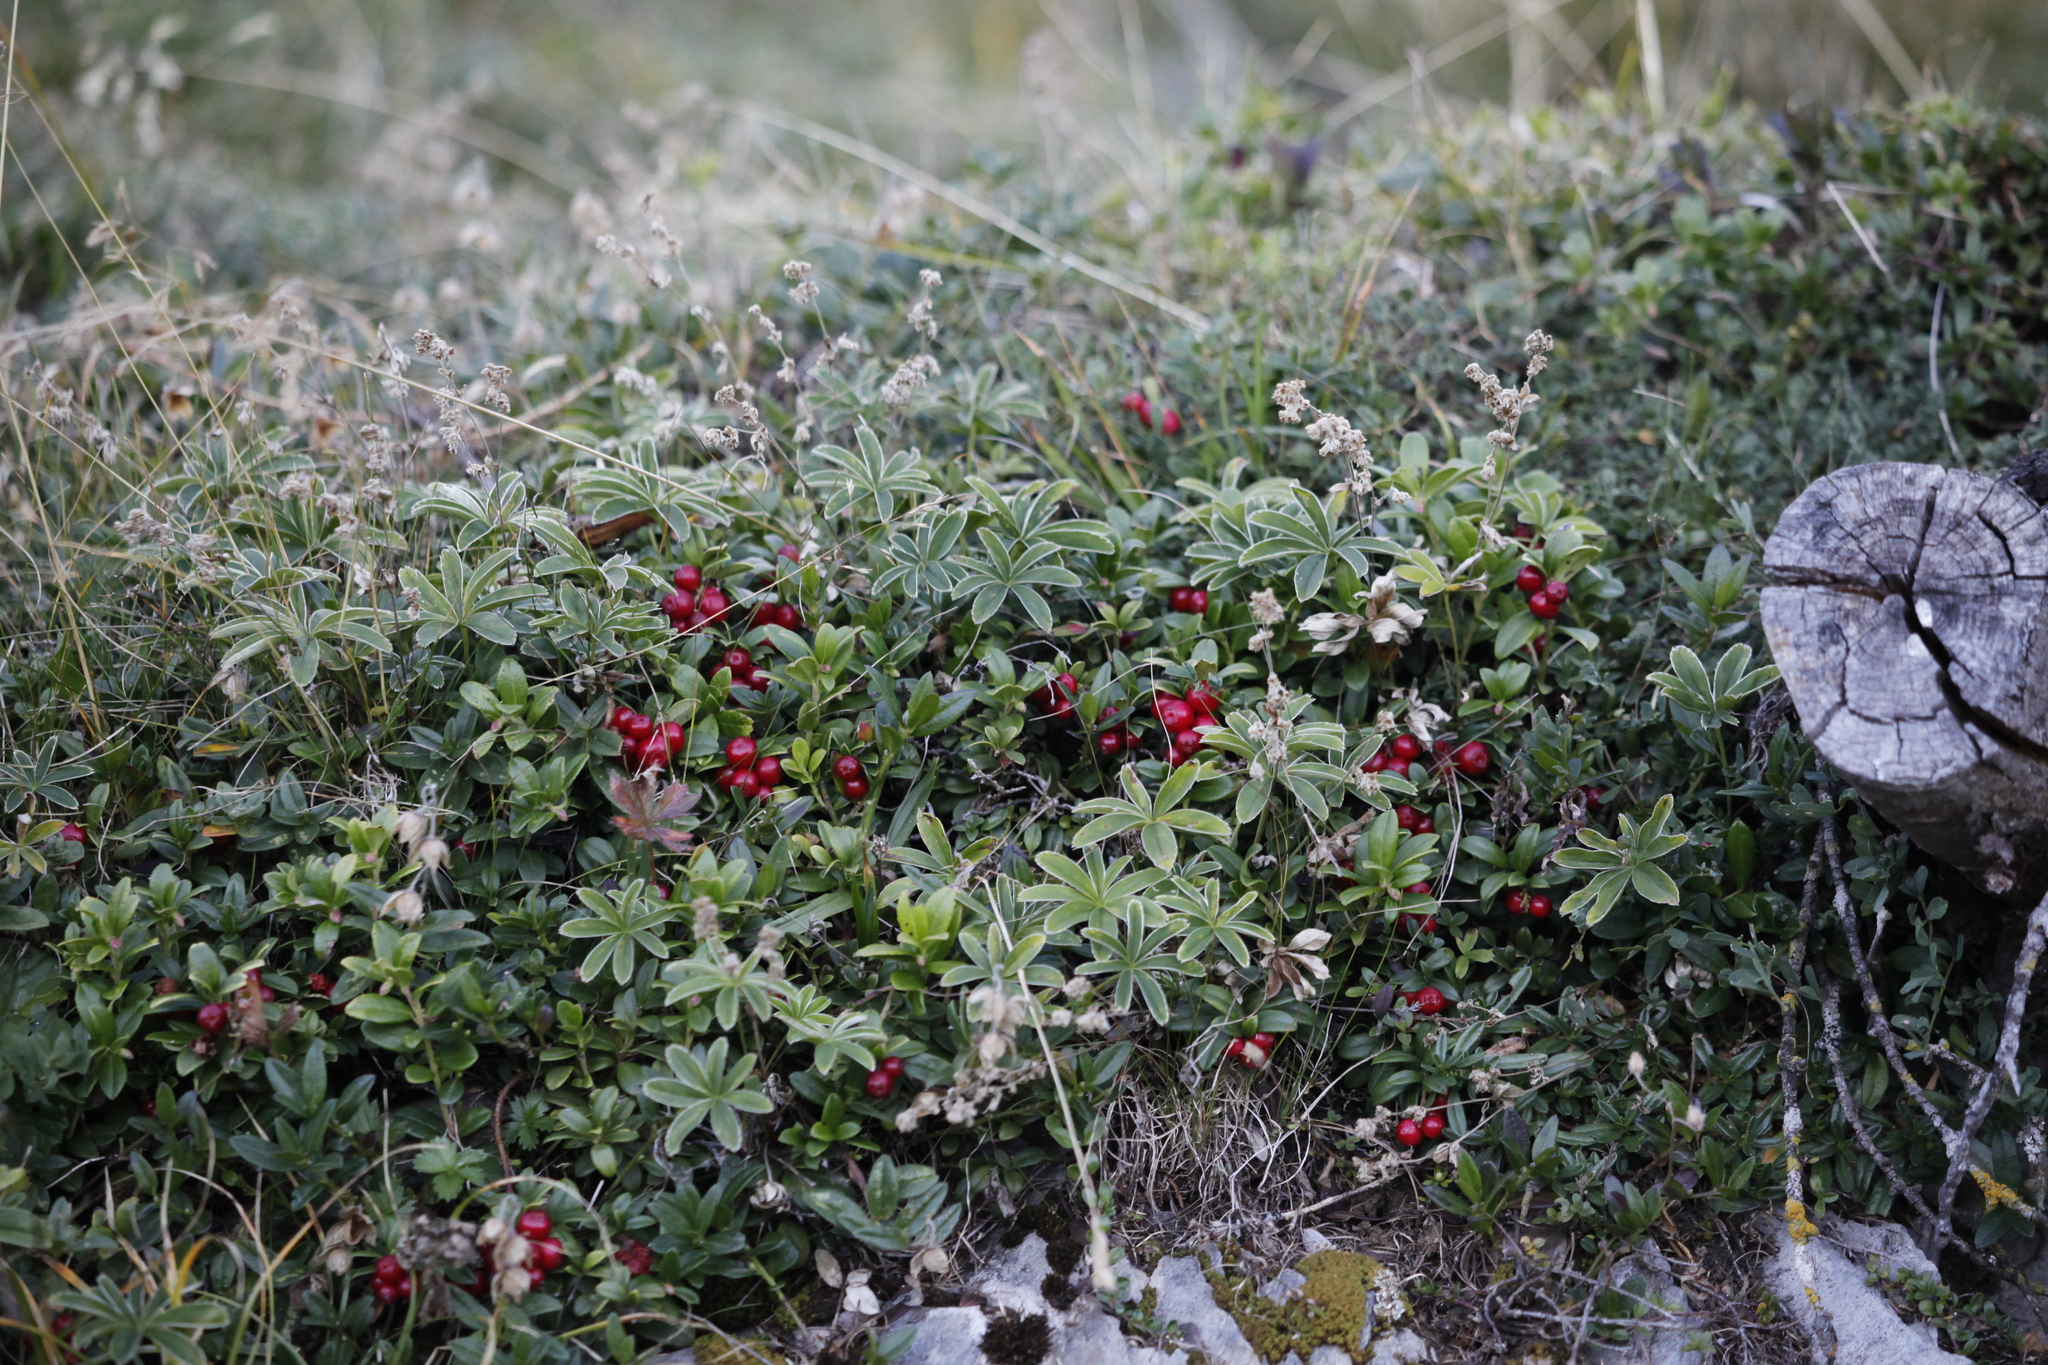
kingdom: Plantae
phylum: Tracheophyta
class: Magnoliopsida
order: Ericales
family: Ericaceae
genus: Vaccinium
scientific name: Vaccinium vitis-idaea
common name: Cowberry
